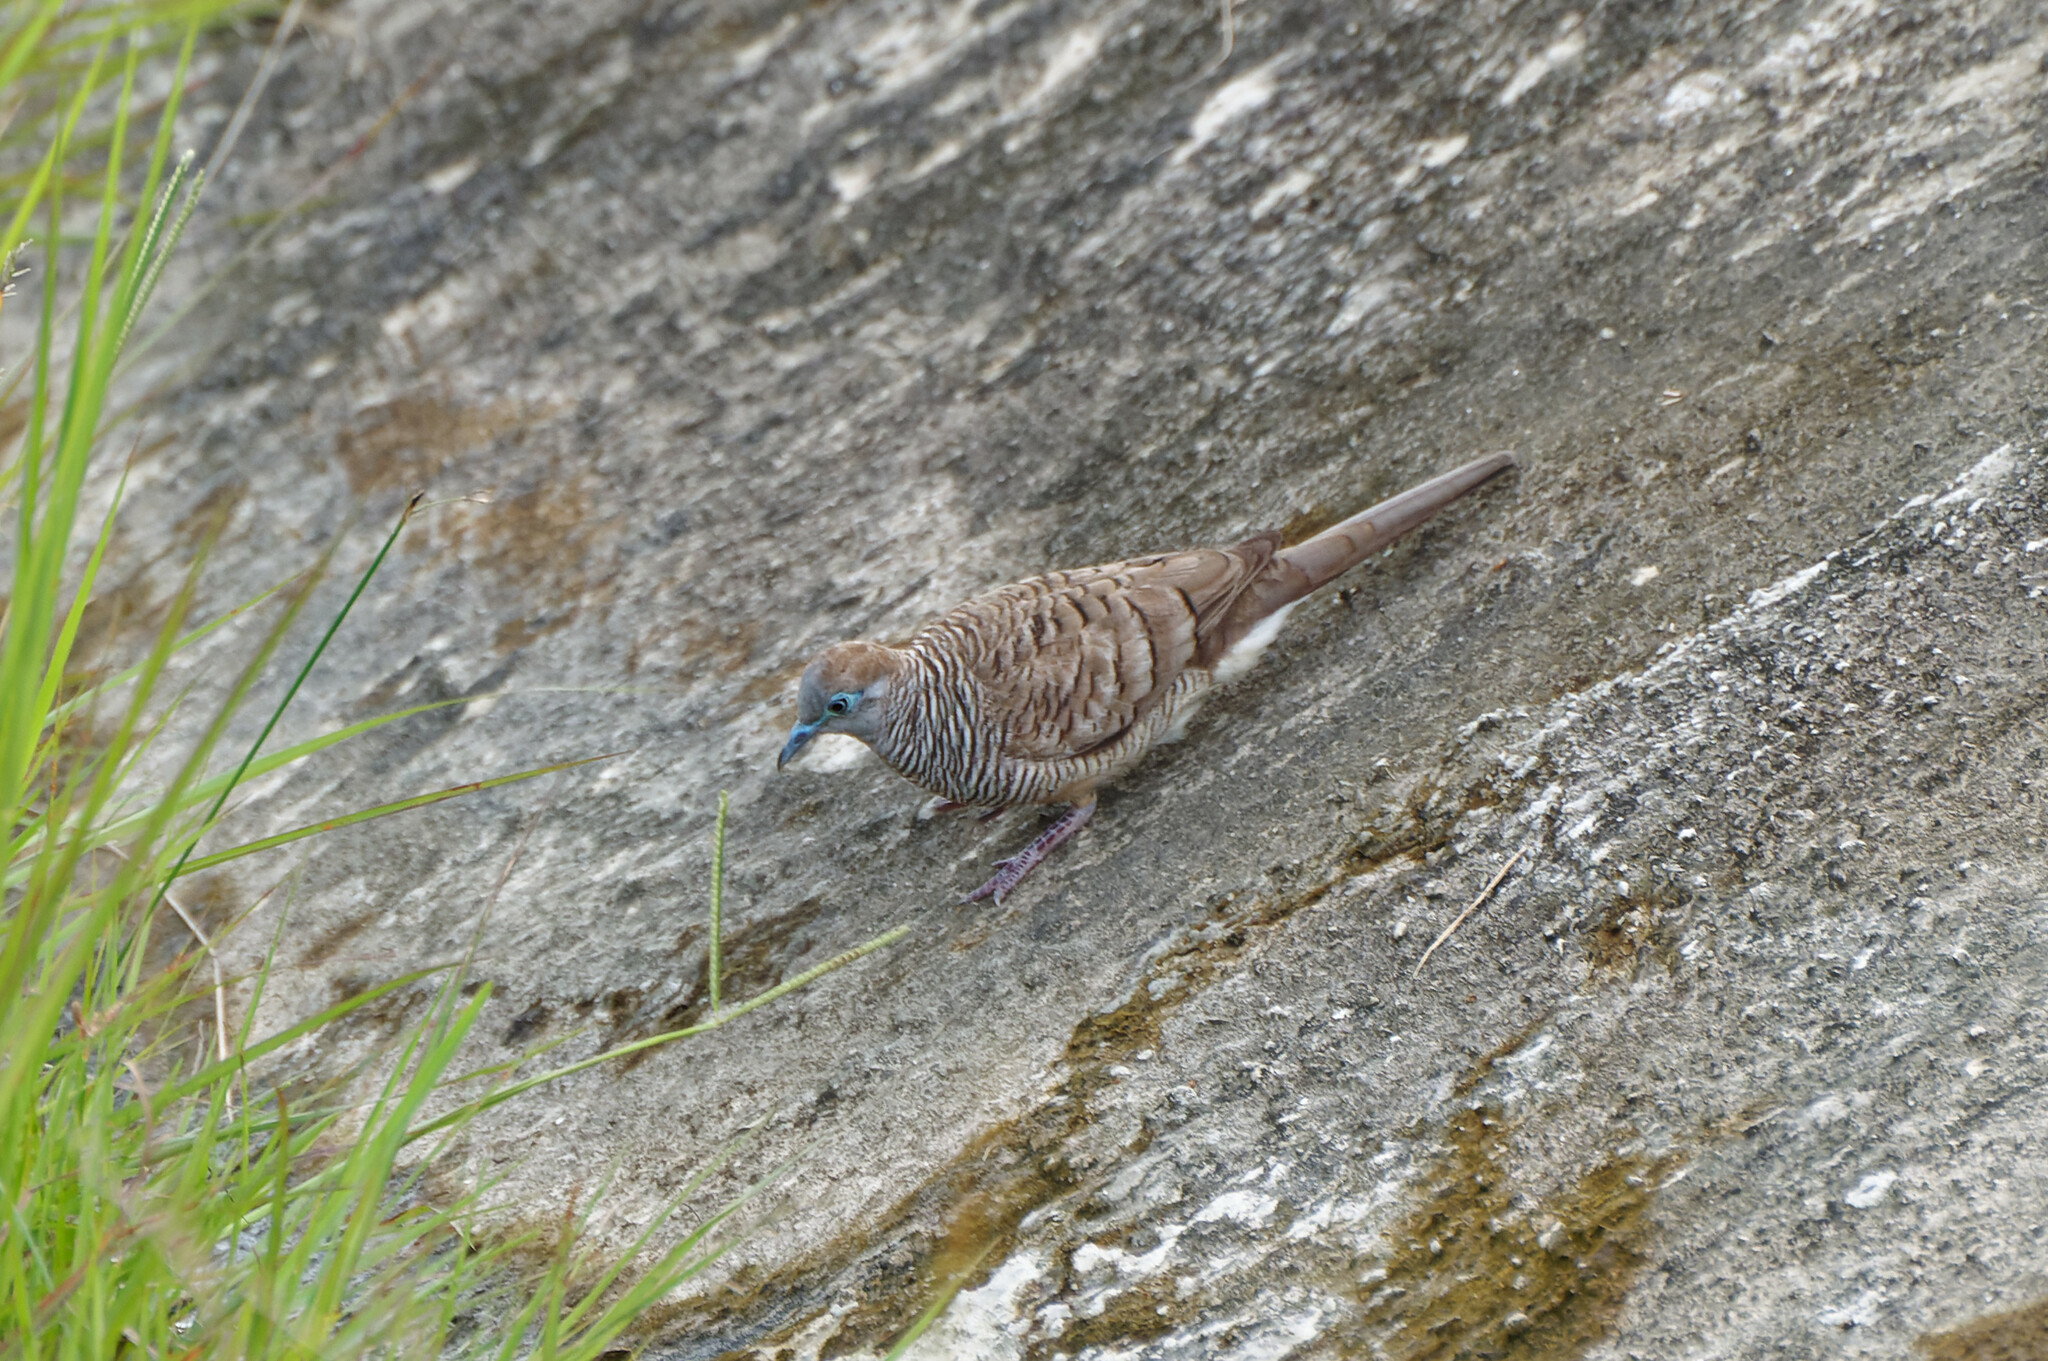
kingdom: Animalia
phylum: Chordata
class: Aves
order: Columbiformes
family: Columbidae
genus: Geopelia
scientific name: Geopelia striata
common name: Zebra dove
